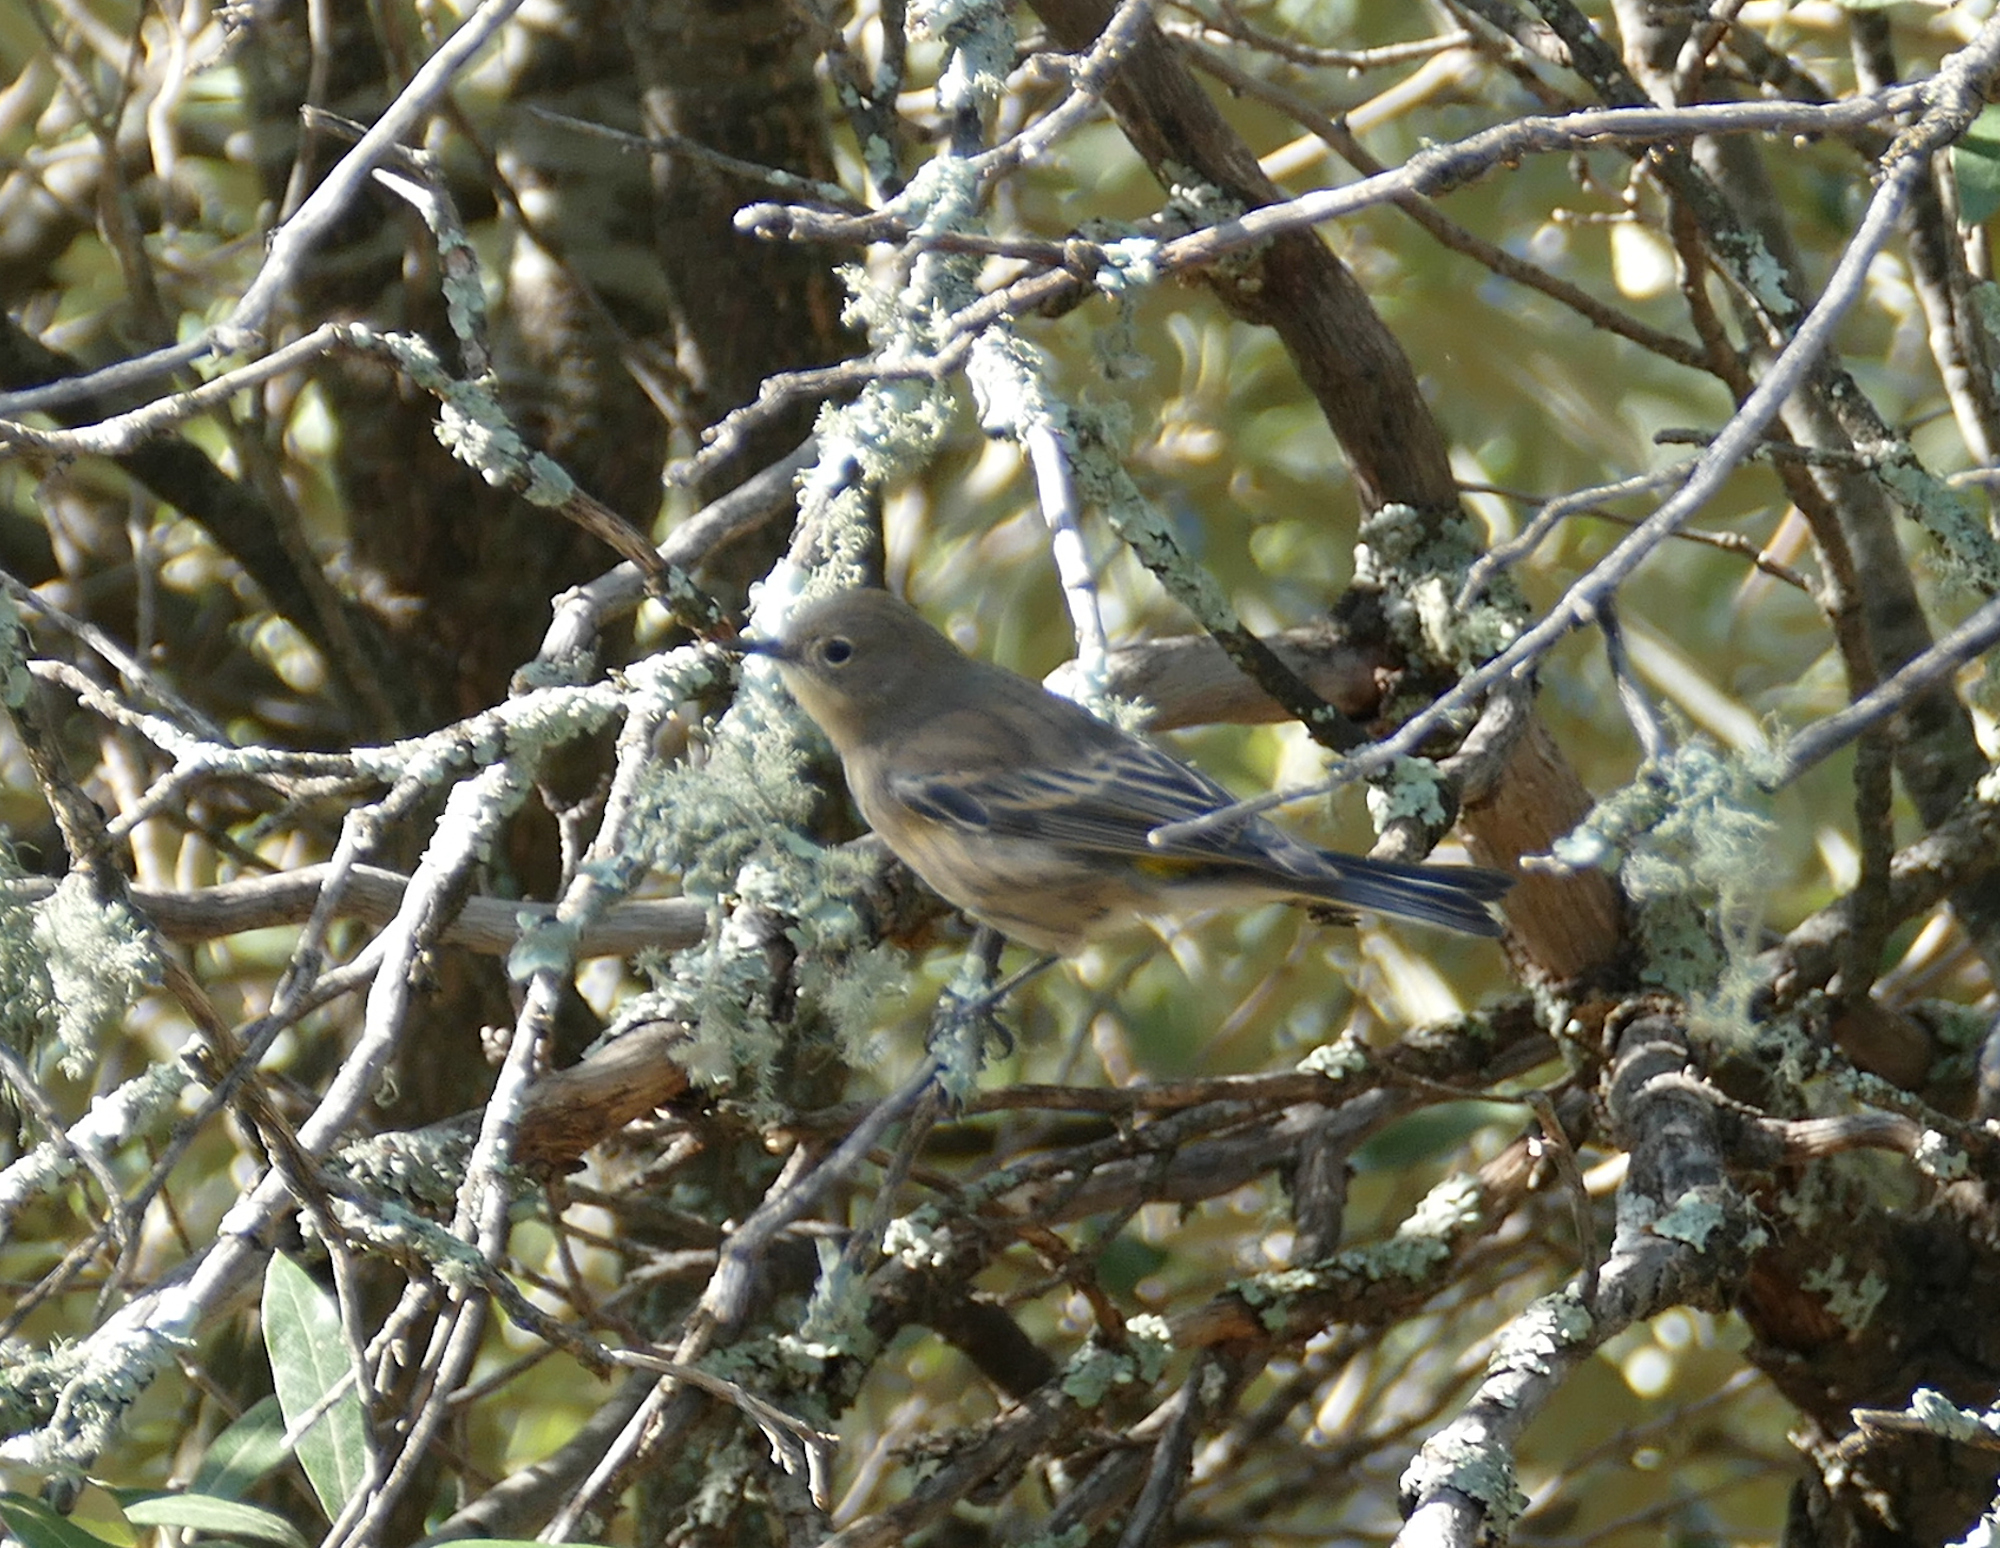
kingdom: Animalia
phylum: Chordata
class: Aves
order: Passeriformes
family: Parulidae
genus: Setophaga
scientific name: Setophaga coronata
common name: Myrtle warbler
